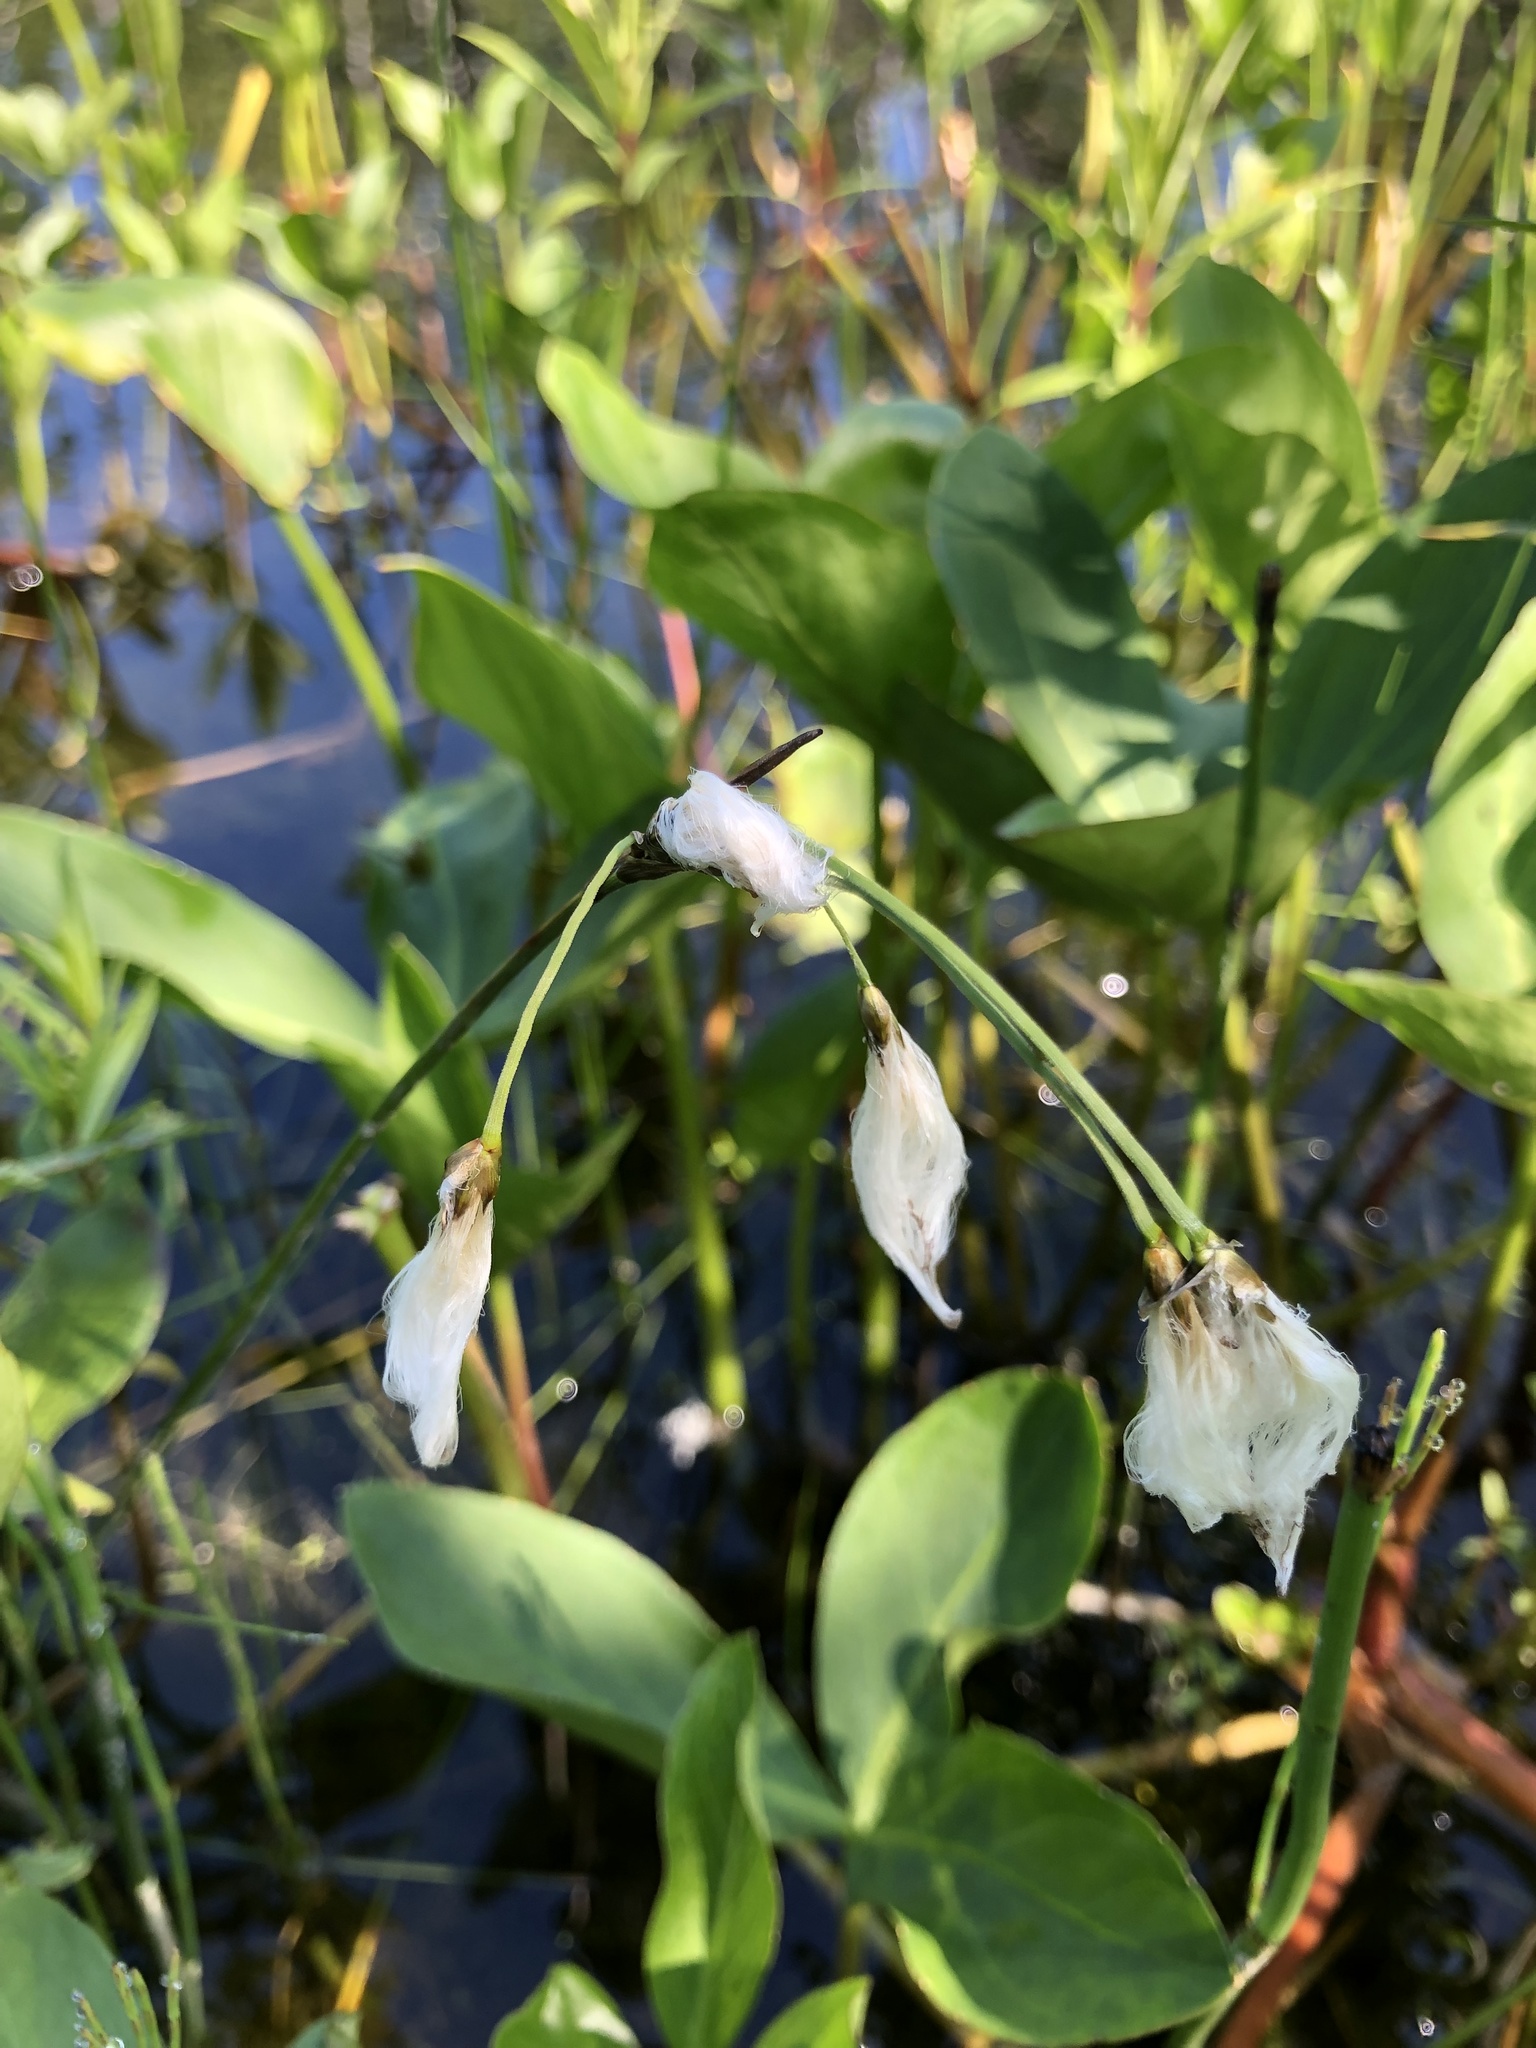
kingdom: Plantae
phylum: Tracheophyta
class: Liliopsida
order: Poales
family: Cyperaceae
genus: Eriophorum
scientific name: Eriophorum gracile
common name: Slender cottongrass
